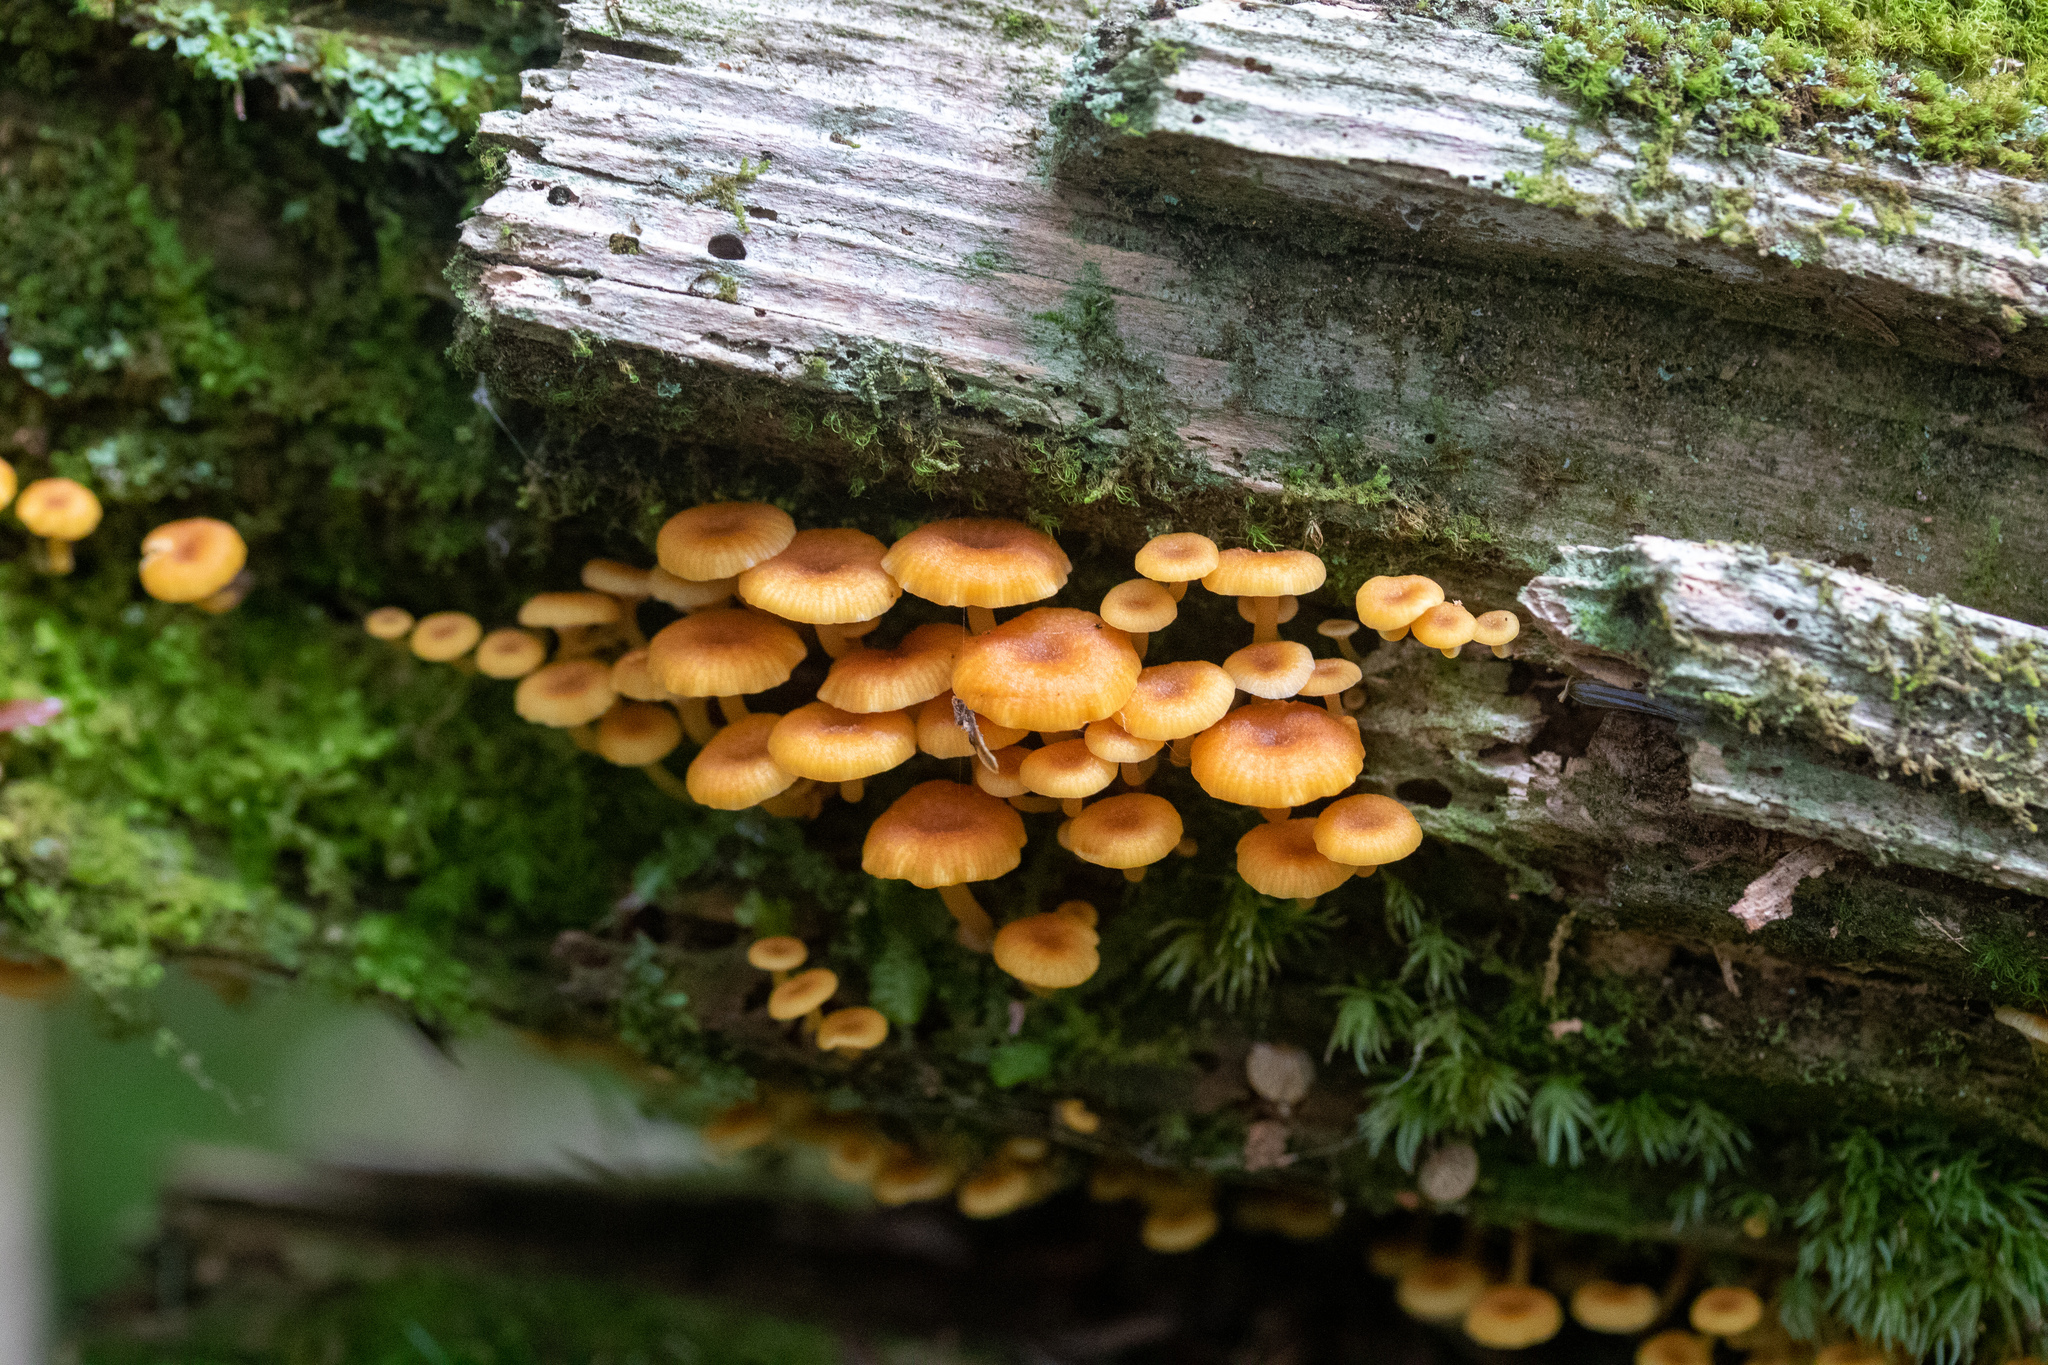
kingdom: Fungi
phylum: Basidiomycota
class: Agaricomycetes
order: Agaricales
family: Mycenaceae
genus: Xeromphalina
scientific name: Xeromphalina campanella
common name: Pinewood gingertail
